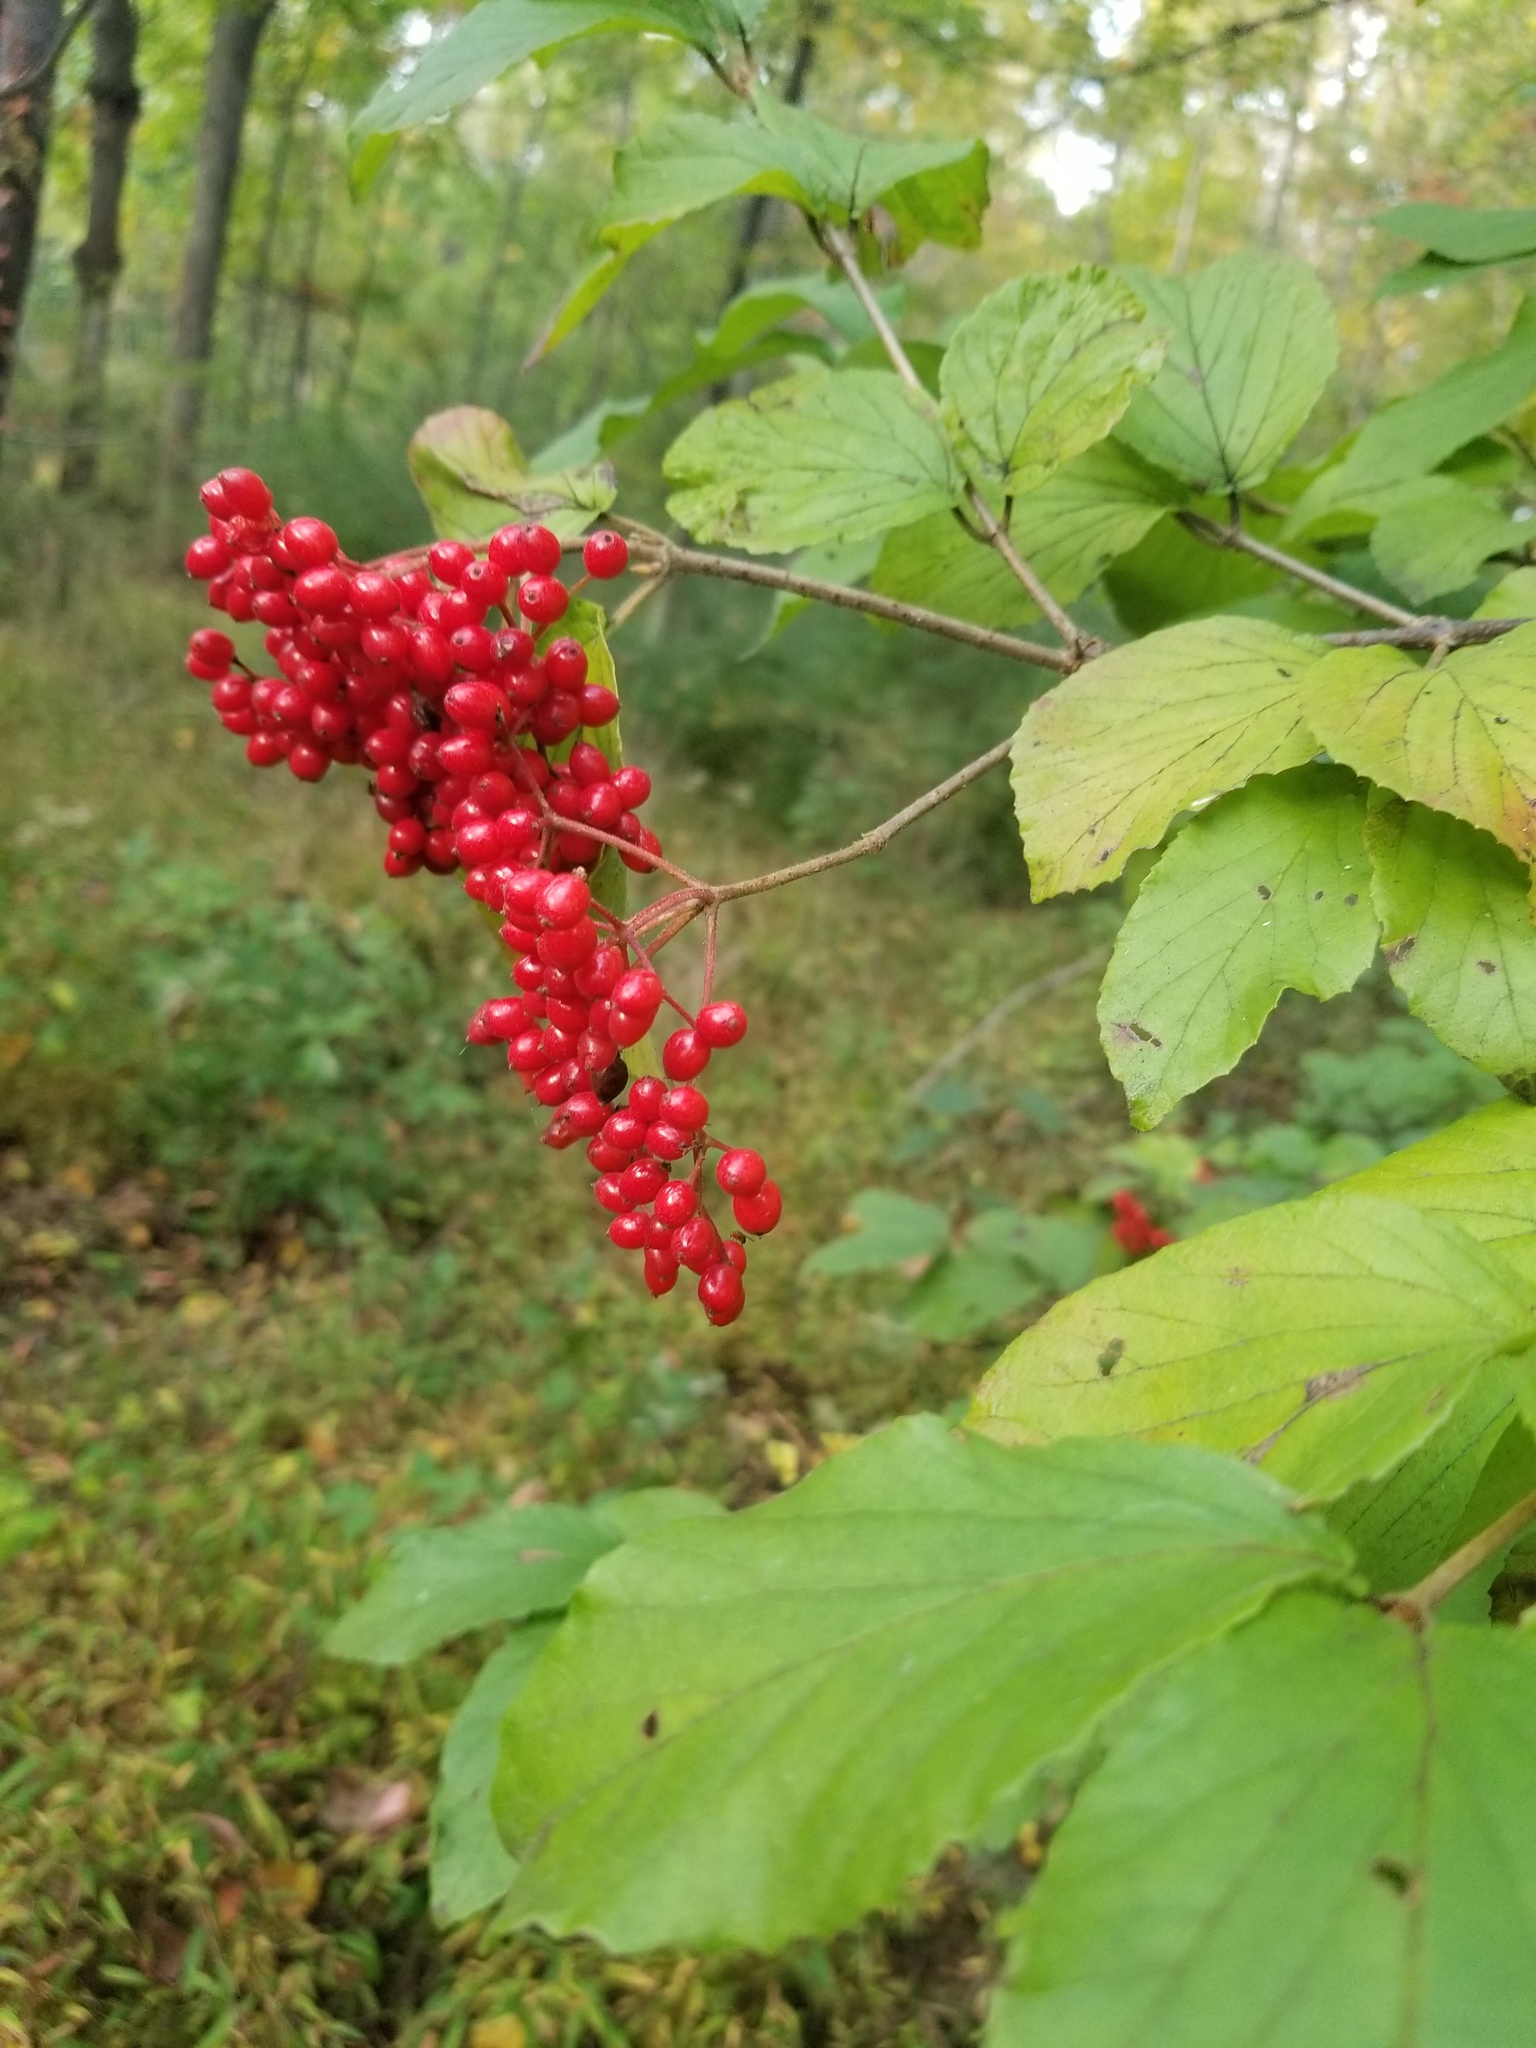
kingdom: Plantae
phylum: Tracheophyta
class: Magnoliopsida
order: Dipsacales
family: Viburnaceae
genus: Viburnum
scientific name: Viburnum dilatatum
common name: Linden arrowwood
